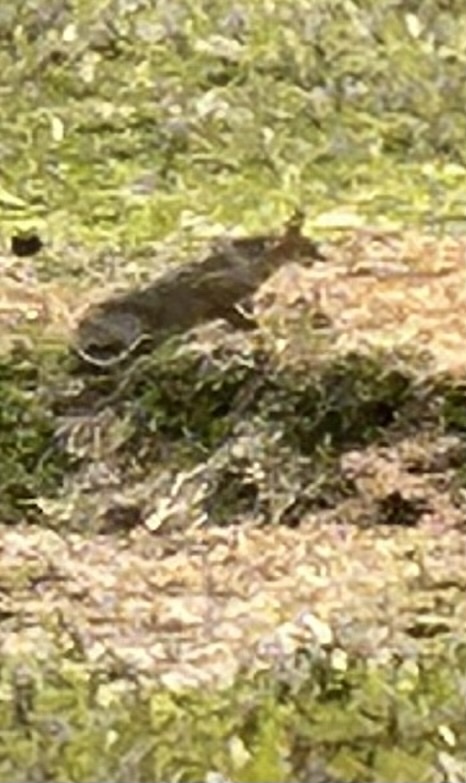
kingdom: Animalia
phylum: Chordata
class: Mammalia
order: Carnivora
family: Felidae
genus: Felis
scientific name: Felis chaus
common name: Jungle cat
